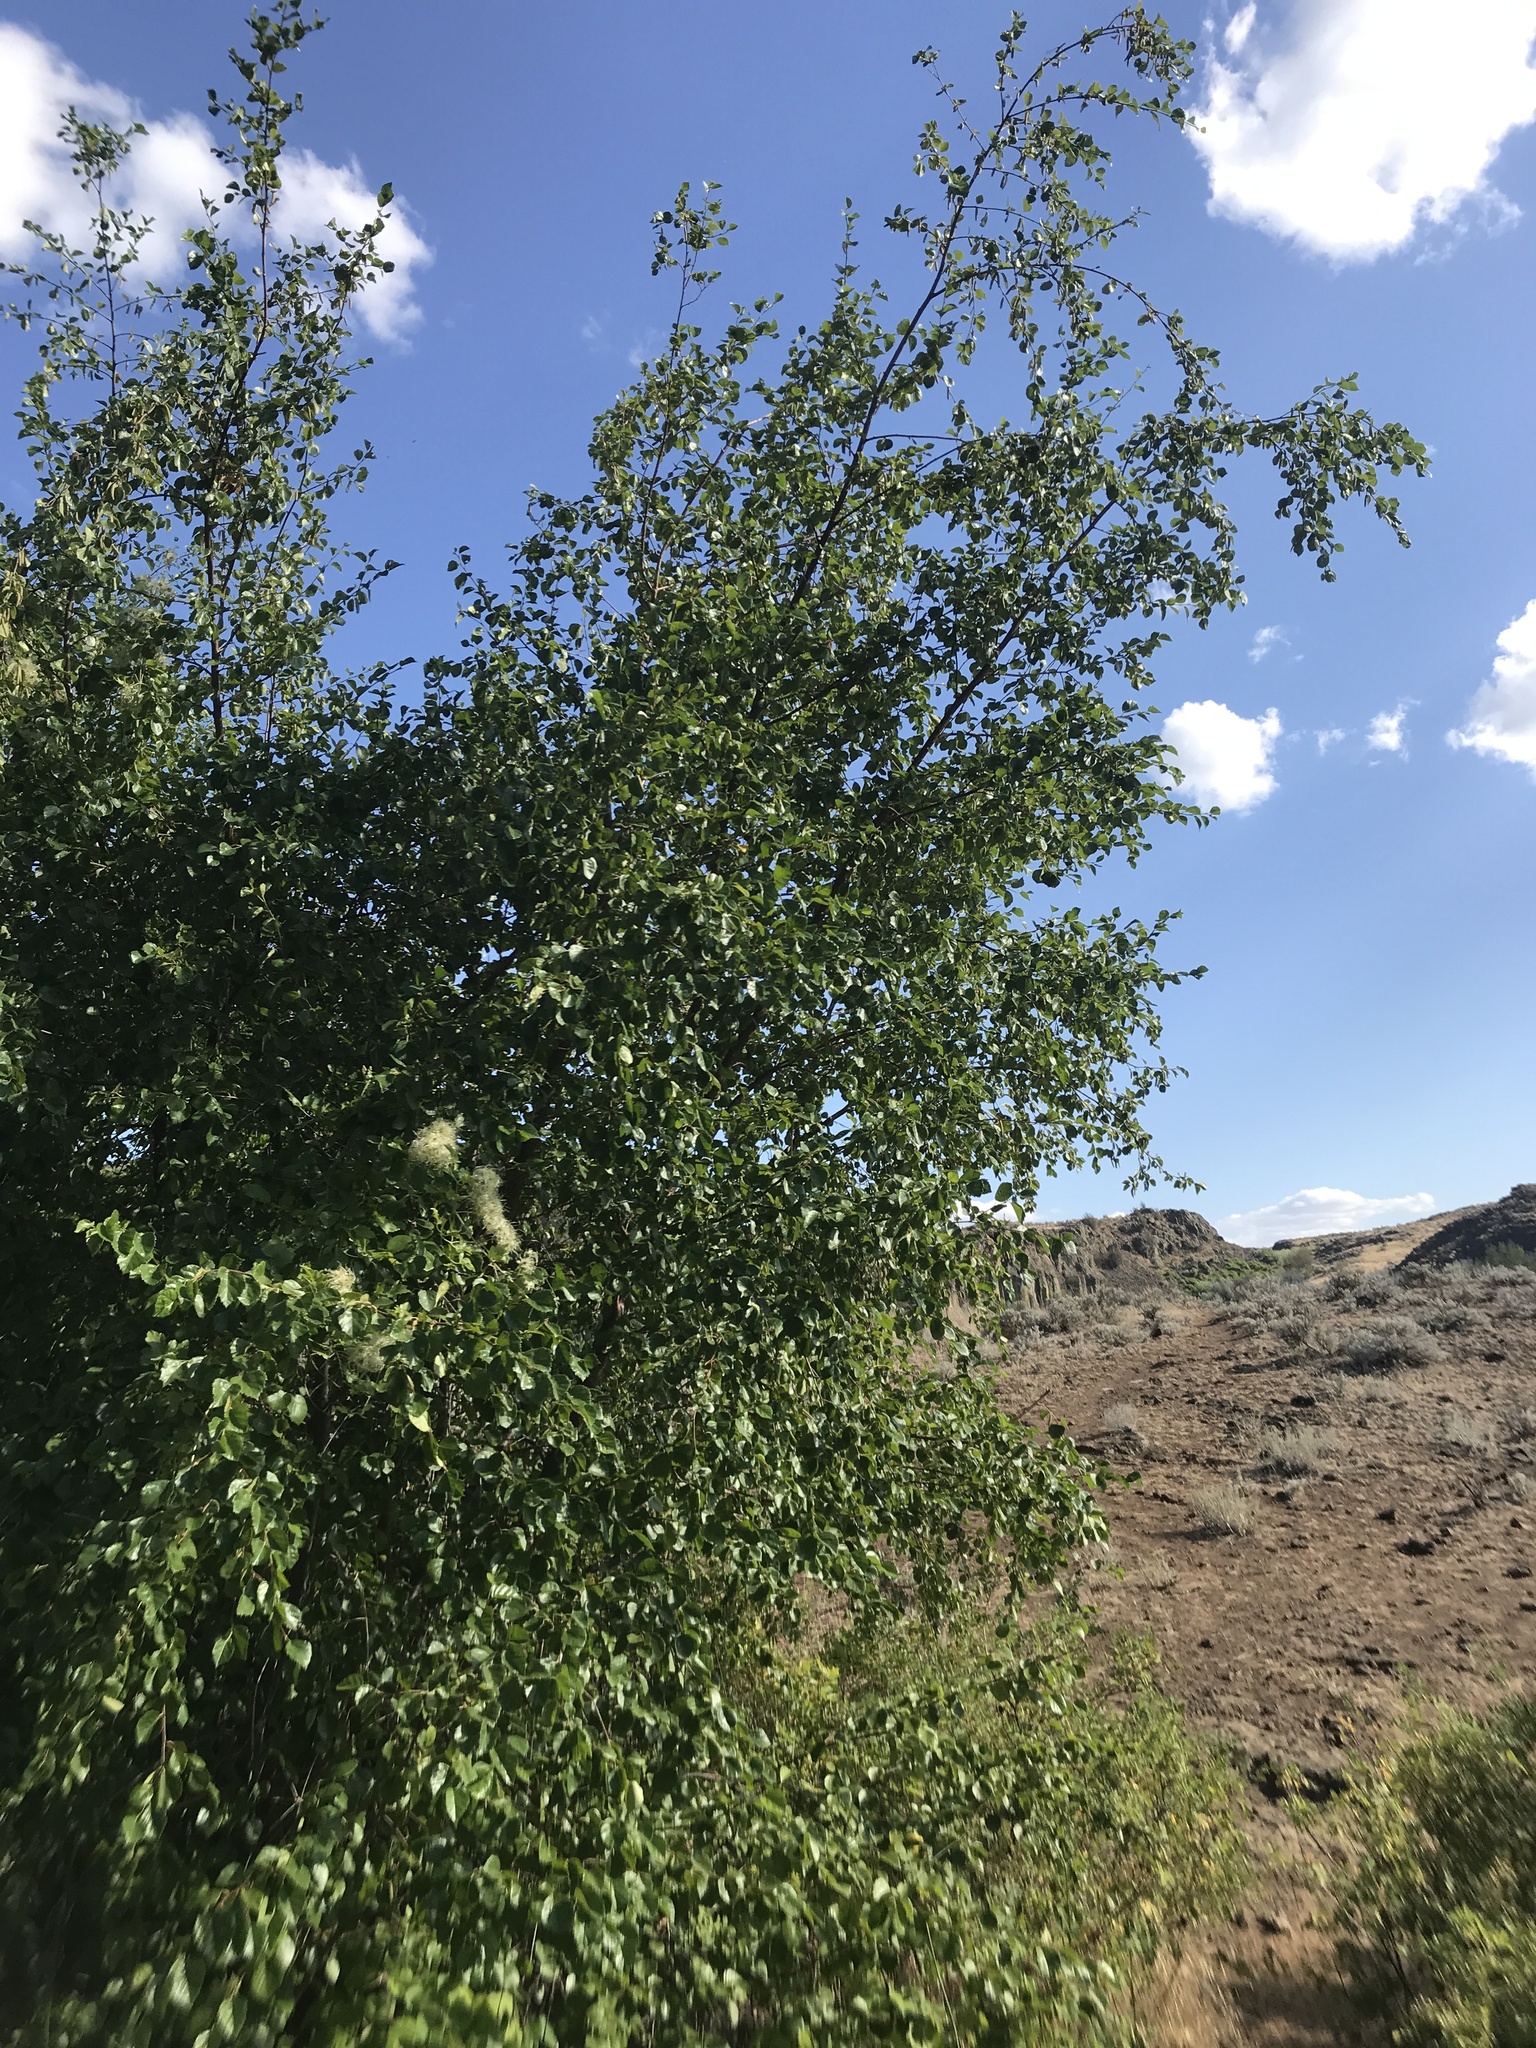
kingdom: Plantae
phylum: Tracheophyta
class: Magnoliopsida
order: Fagales
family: Betulaceae
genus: Betula
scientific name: Betula occidentalis
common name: River birch
